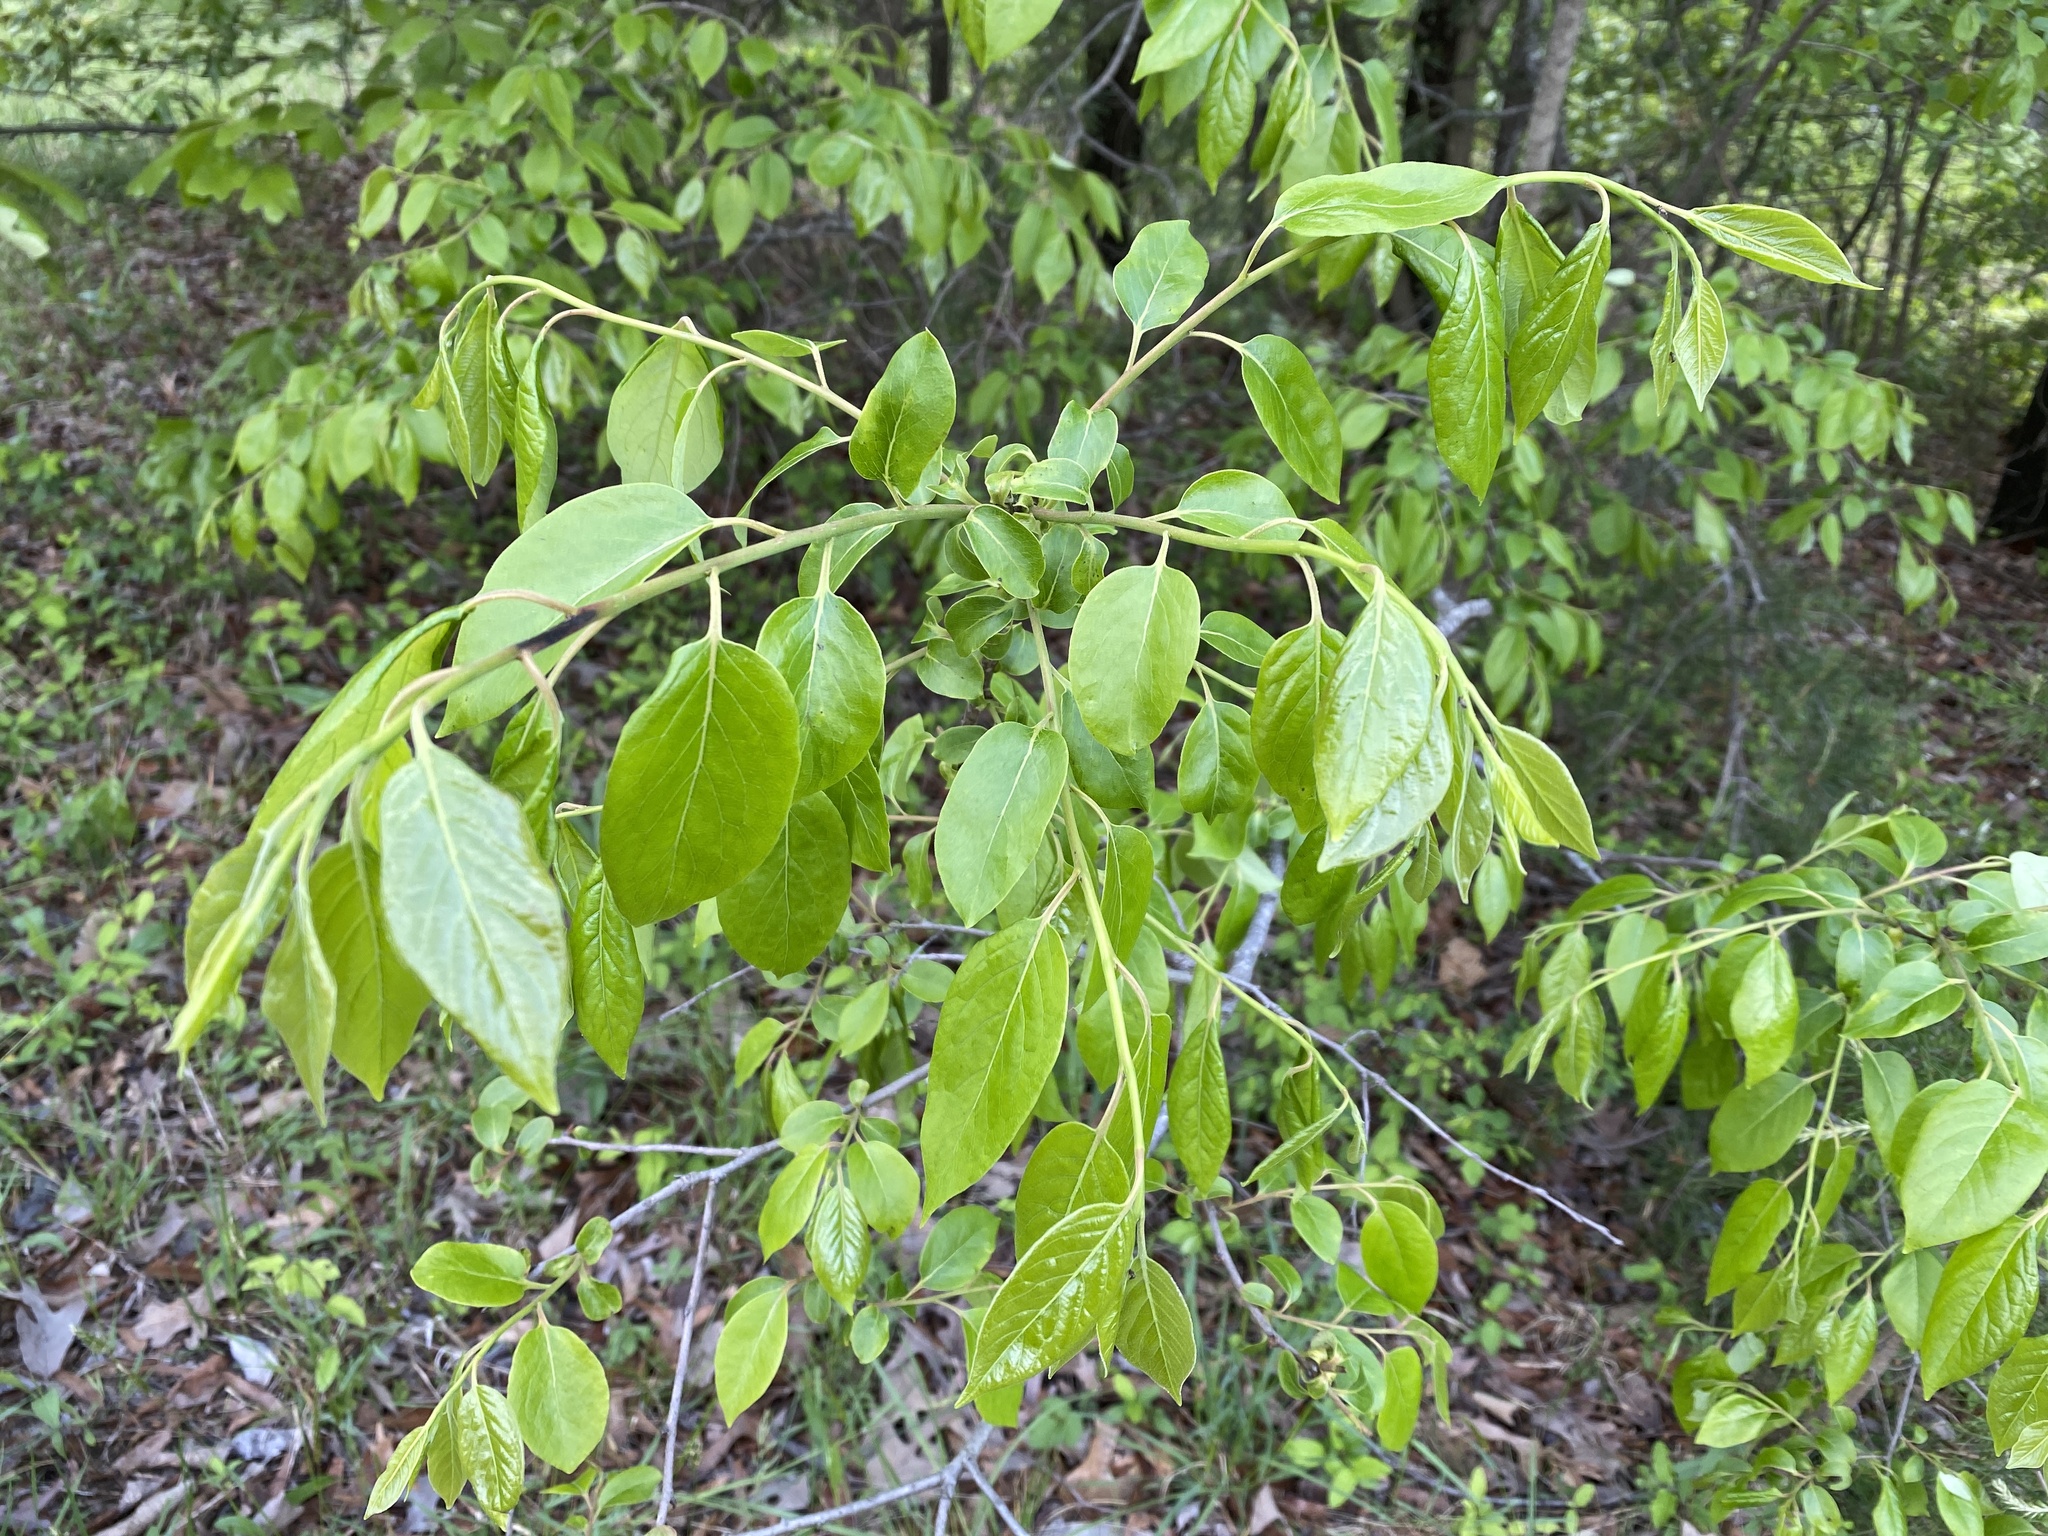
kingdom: Plantae
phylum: Tracheophyta
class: Magnoliopsida
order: Ericales
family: Ebenaceae
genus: Diospyros
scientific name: Diospyros virginiana
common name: Persimmon
